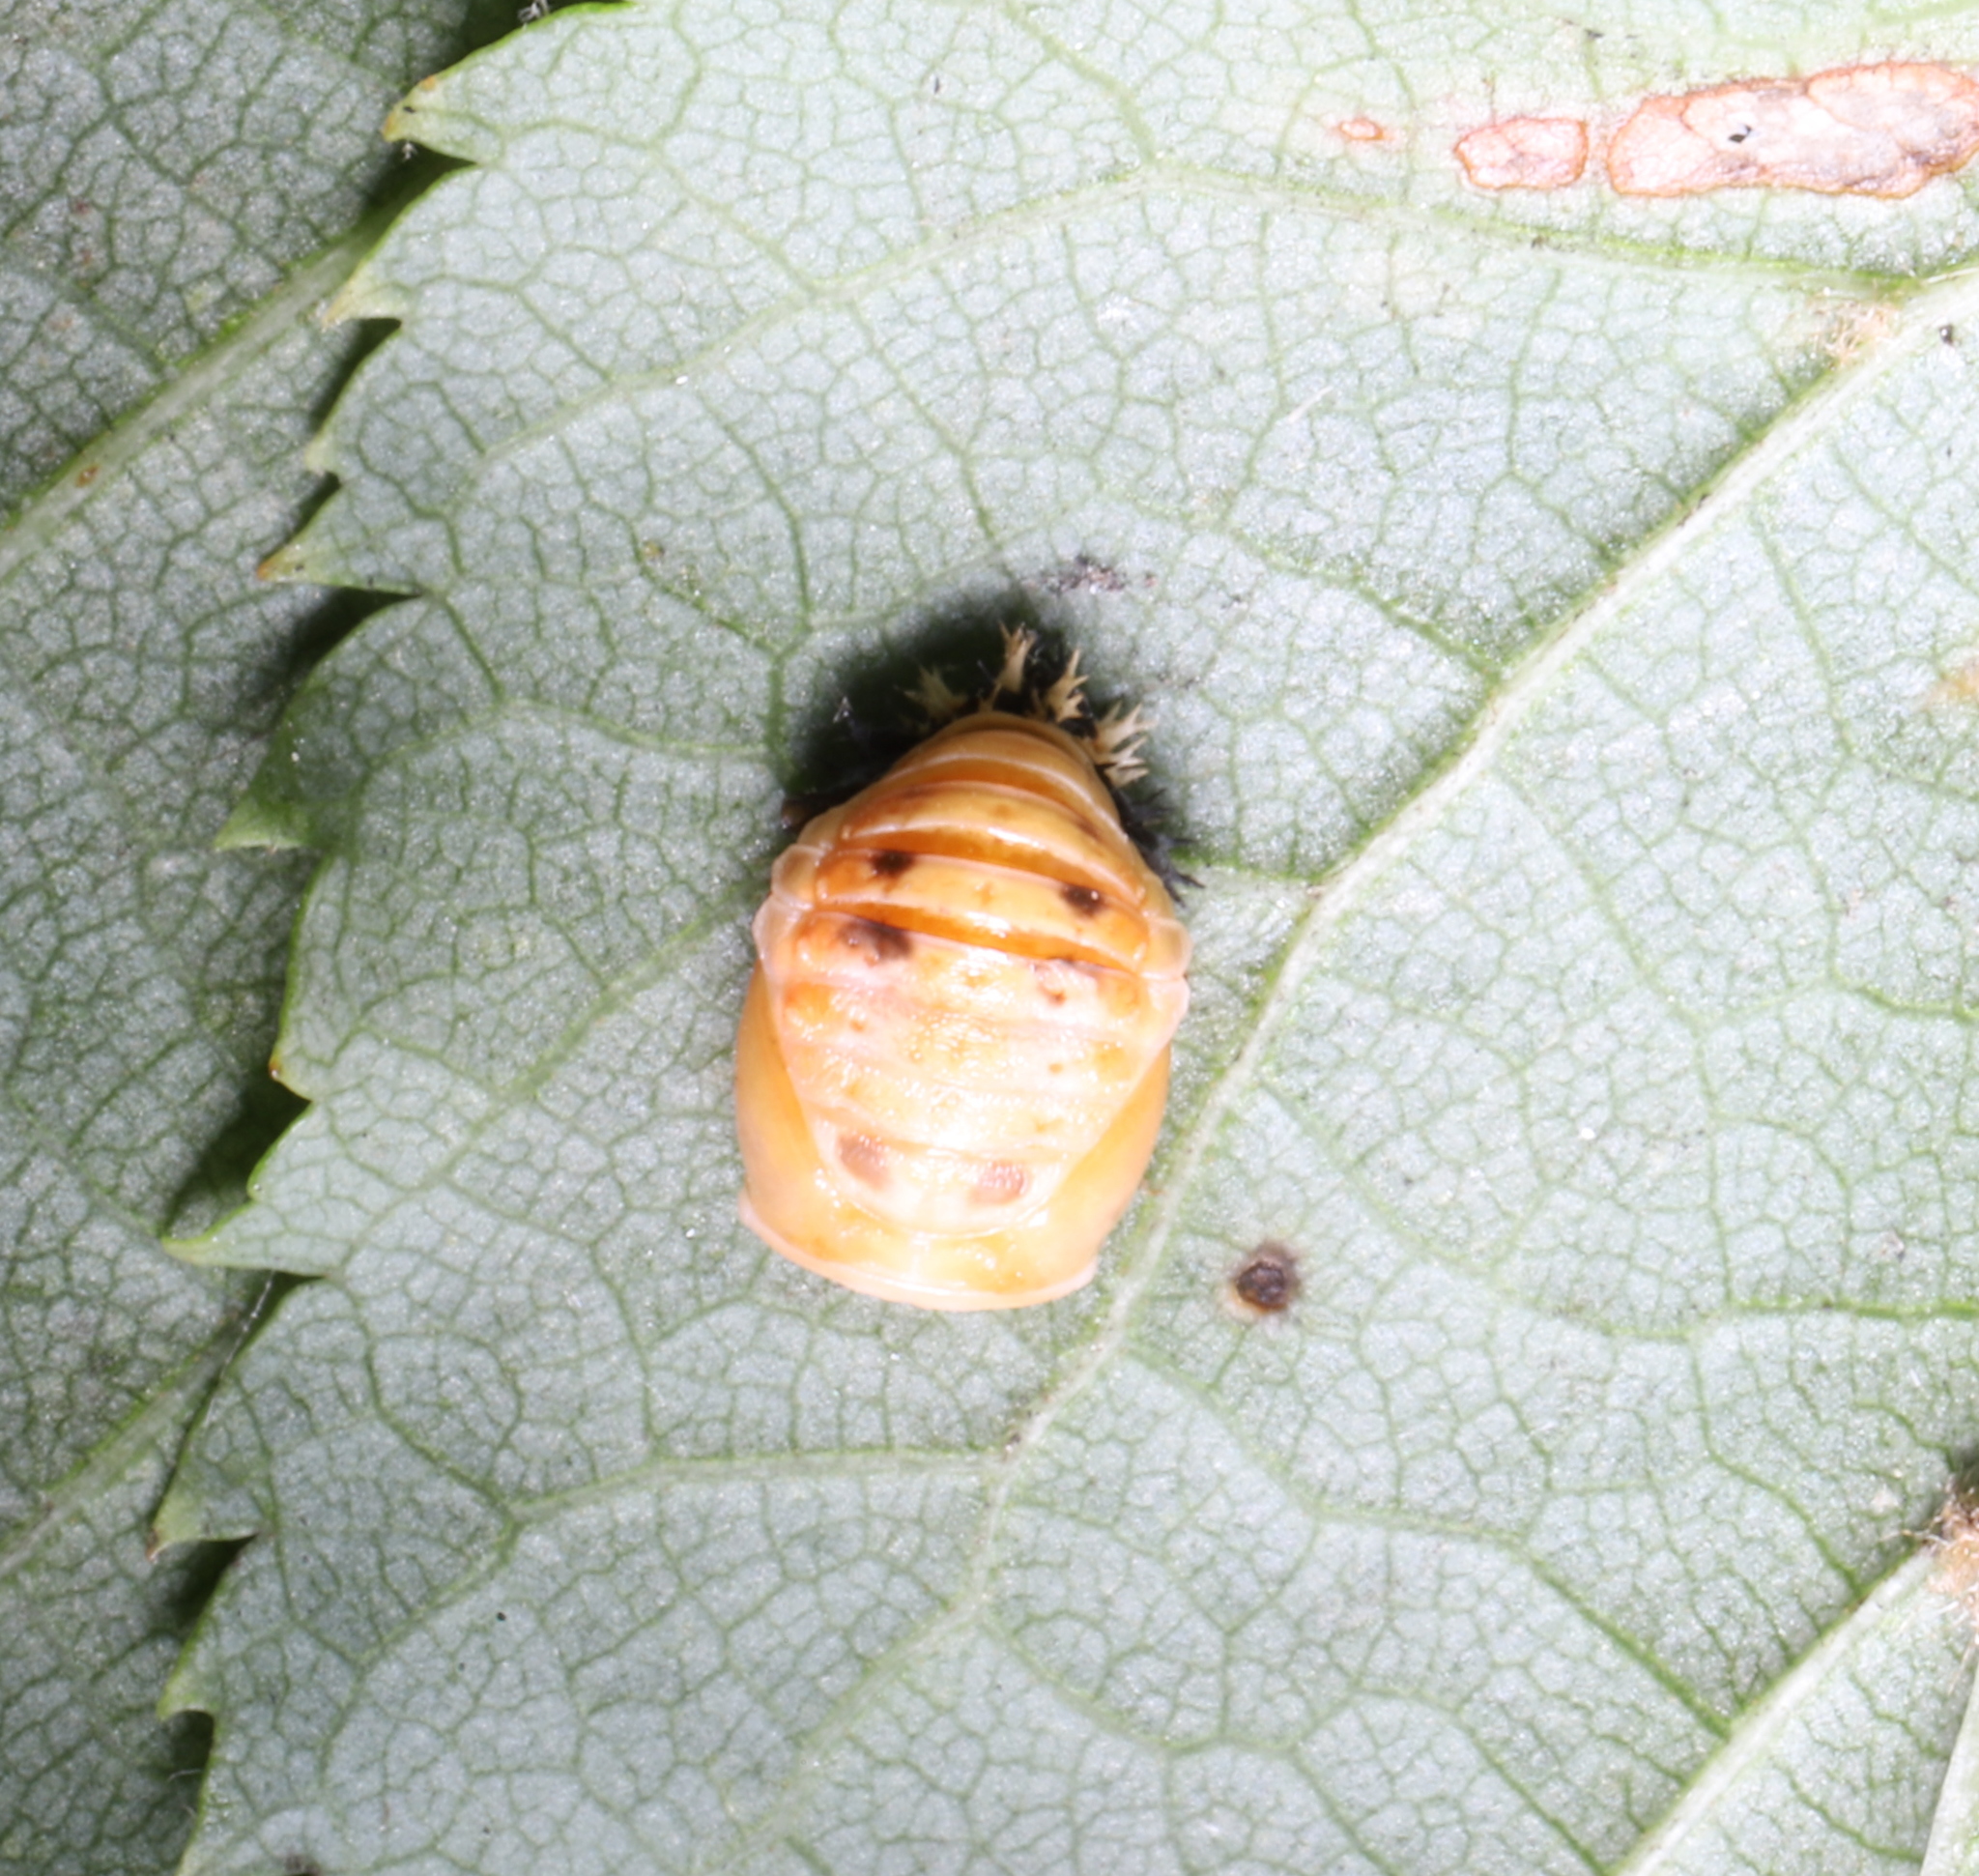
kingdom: Animalia
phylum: Arthropoda
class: Insecta
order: Coleoptera
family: Coccinellidae
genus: Harmonia
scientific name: Harmonia axyridis
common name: Harlequin ladybird
